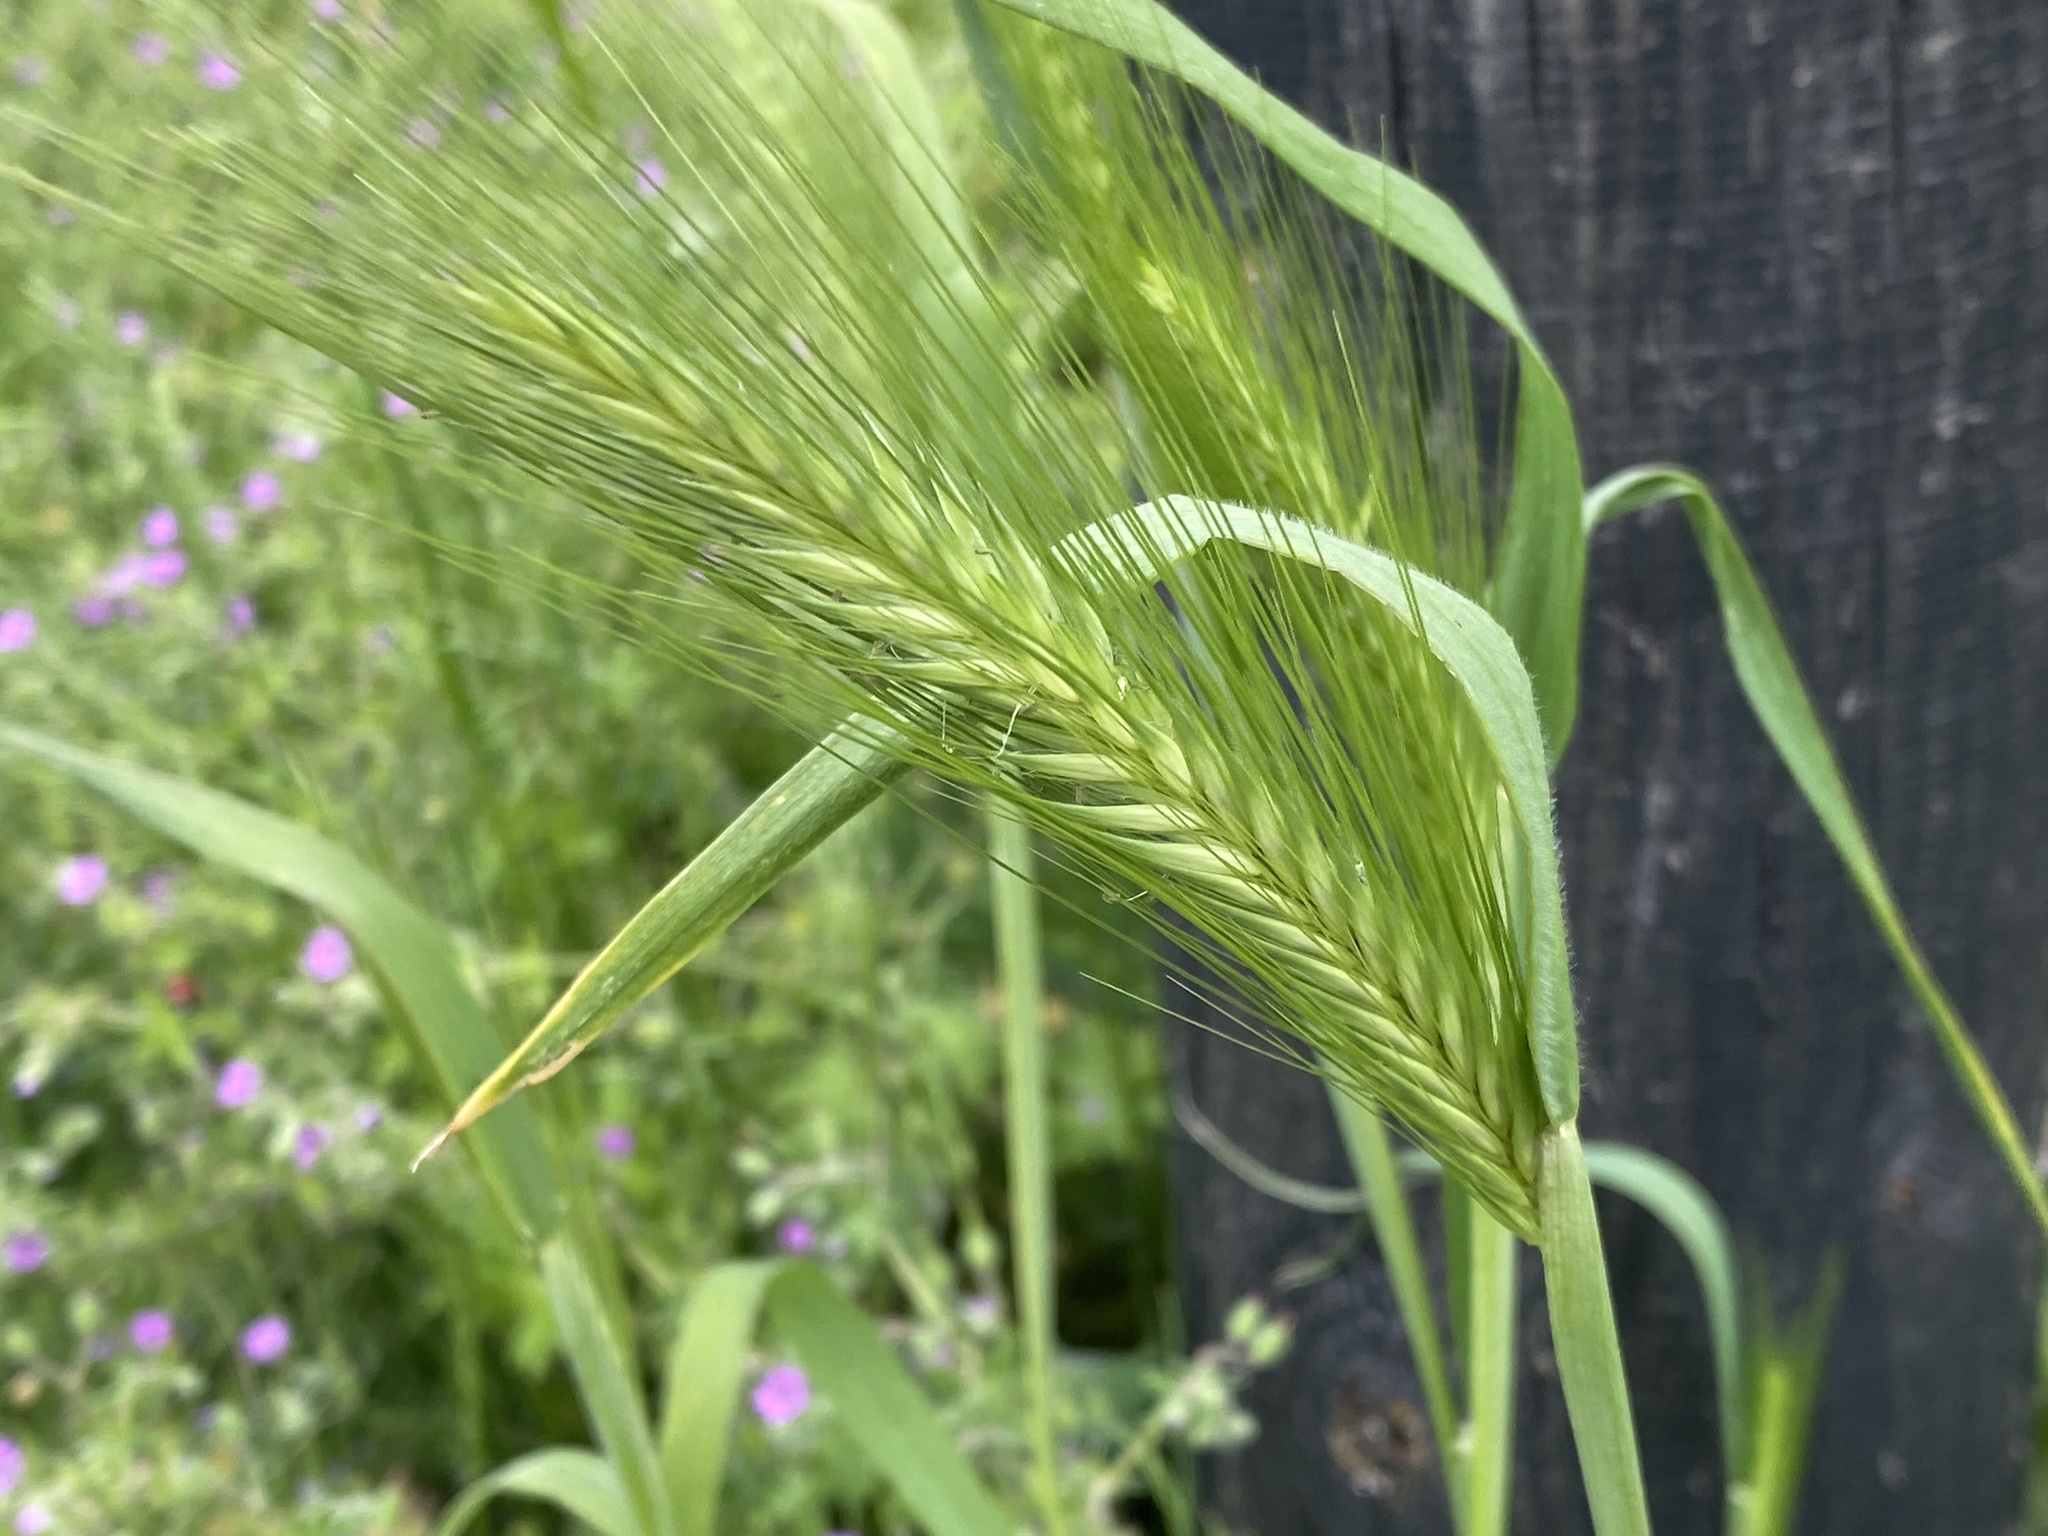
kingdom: Plantae
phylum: Tracheophyta
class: Liliopsida
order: Poales
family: Poaceae
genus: Hordeum
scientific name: Hordeum murinum
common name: Wall barley
